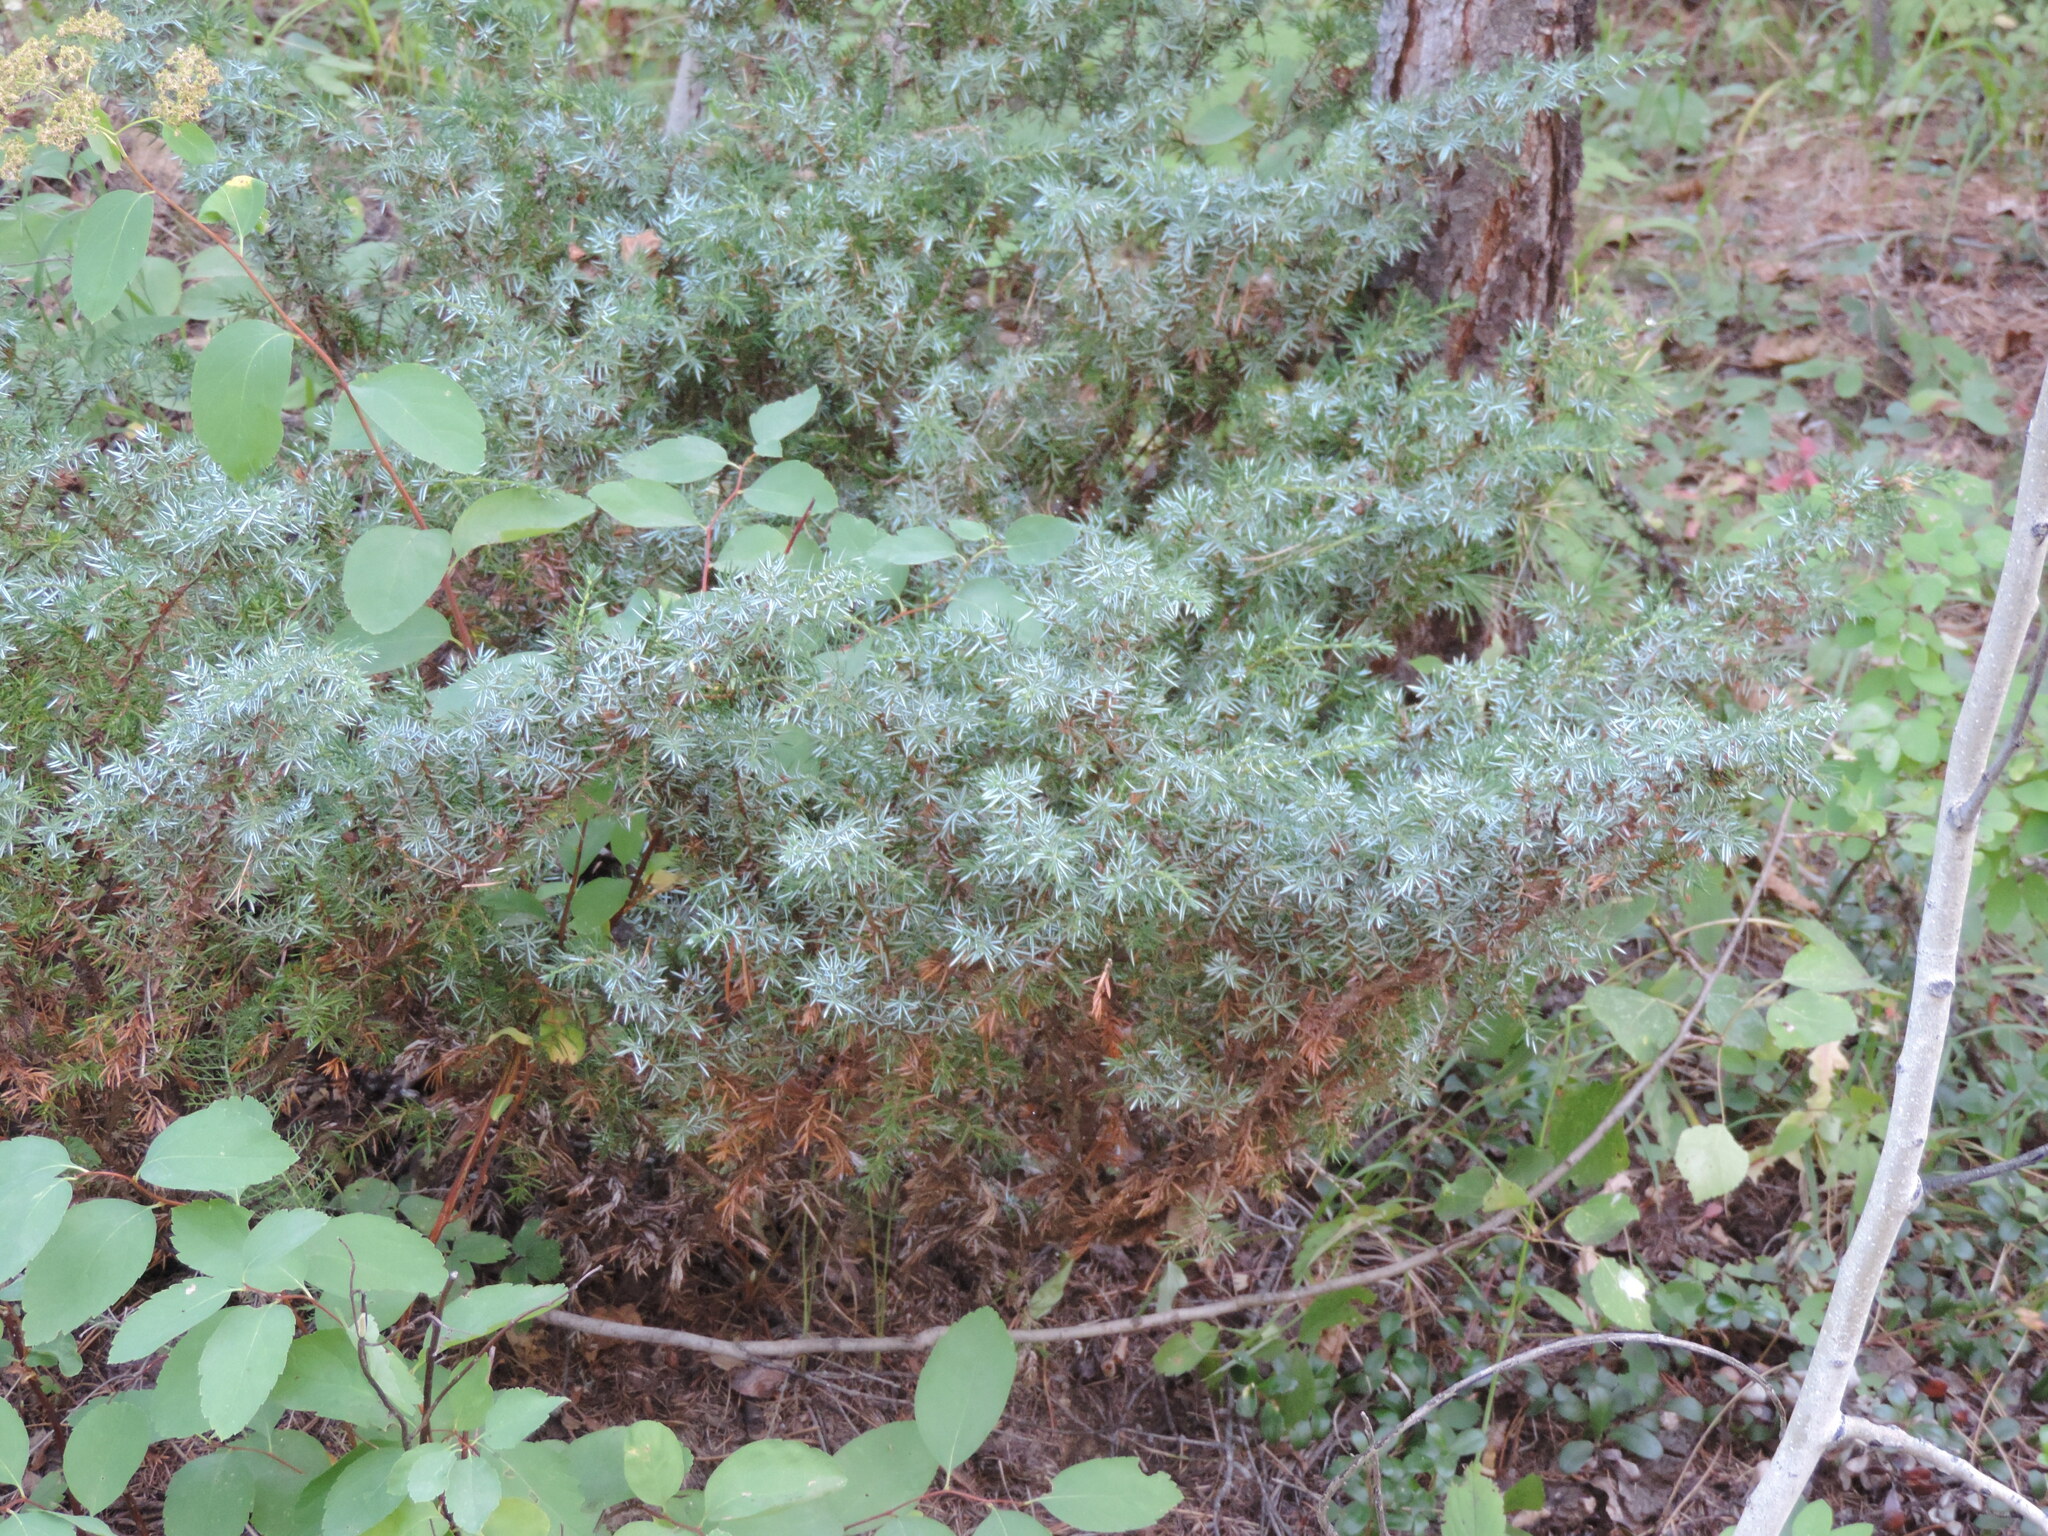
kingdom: Plantae
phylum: Tracheophyta
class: Pinopsida
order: Pinales
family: Cupressaceae
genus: Juniperus
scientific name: Juniperus communis
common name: Common juniper
